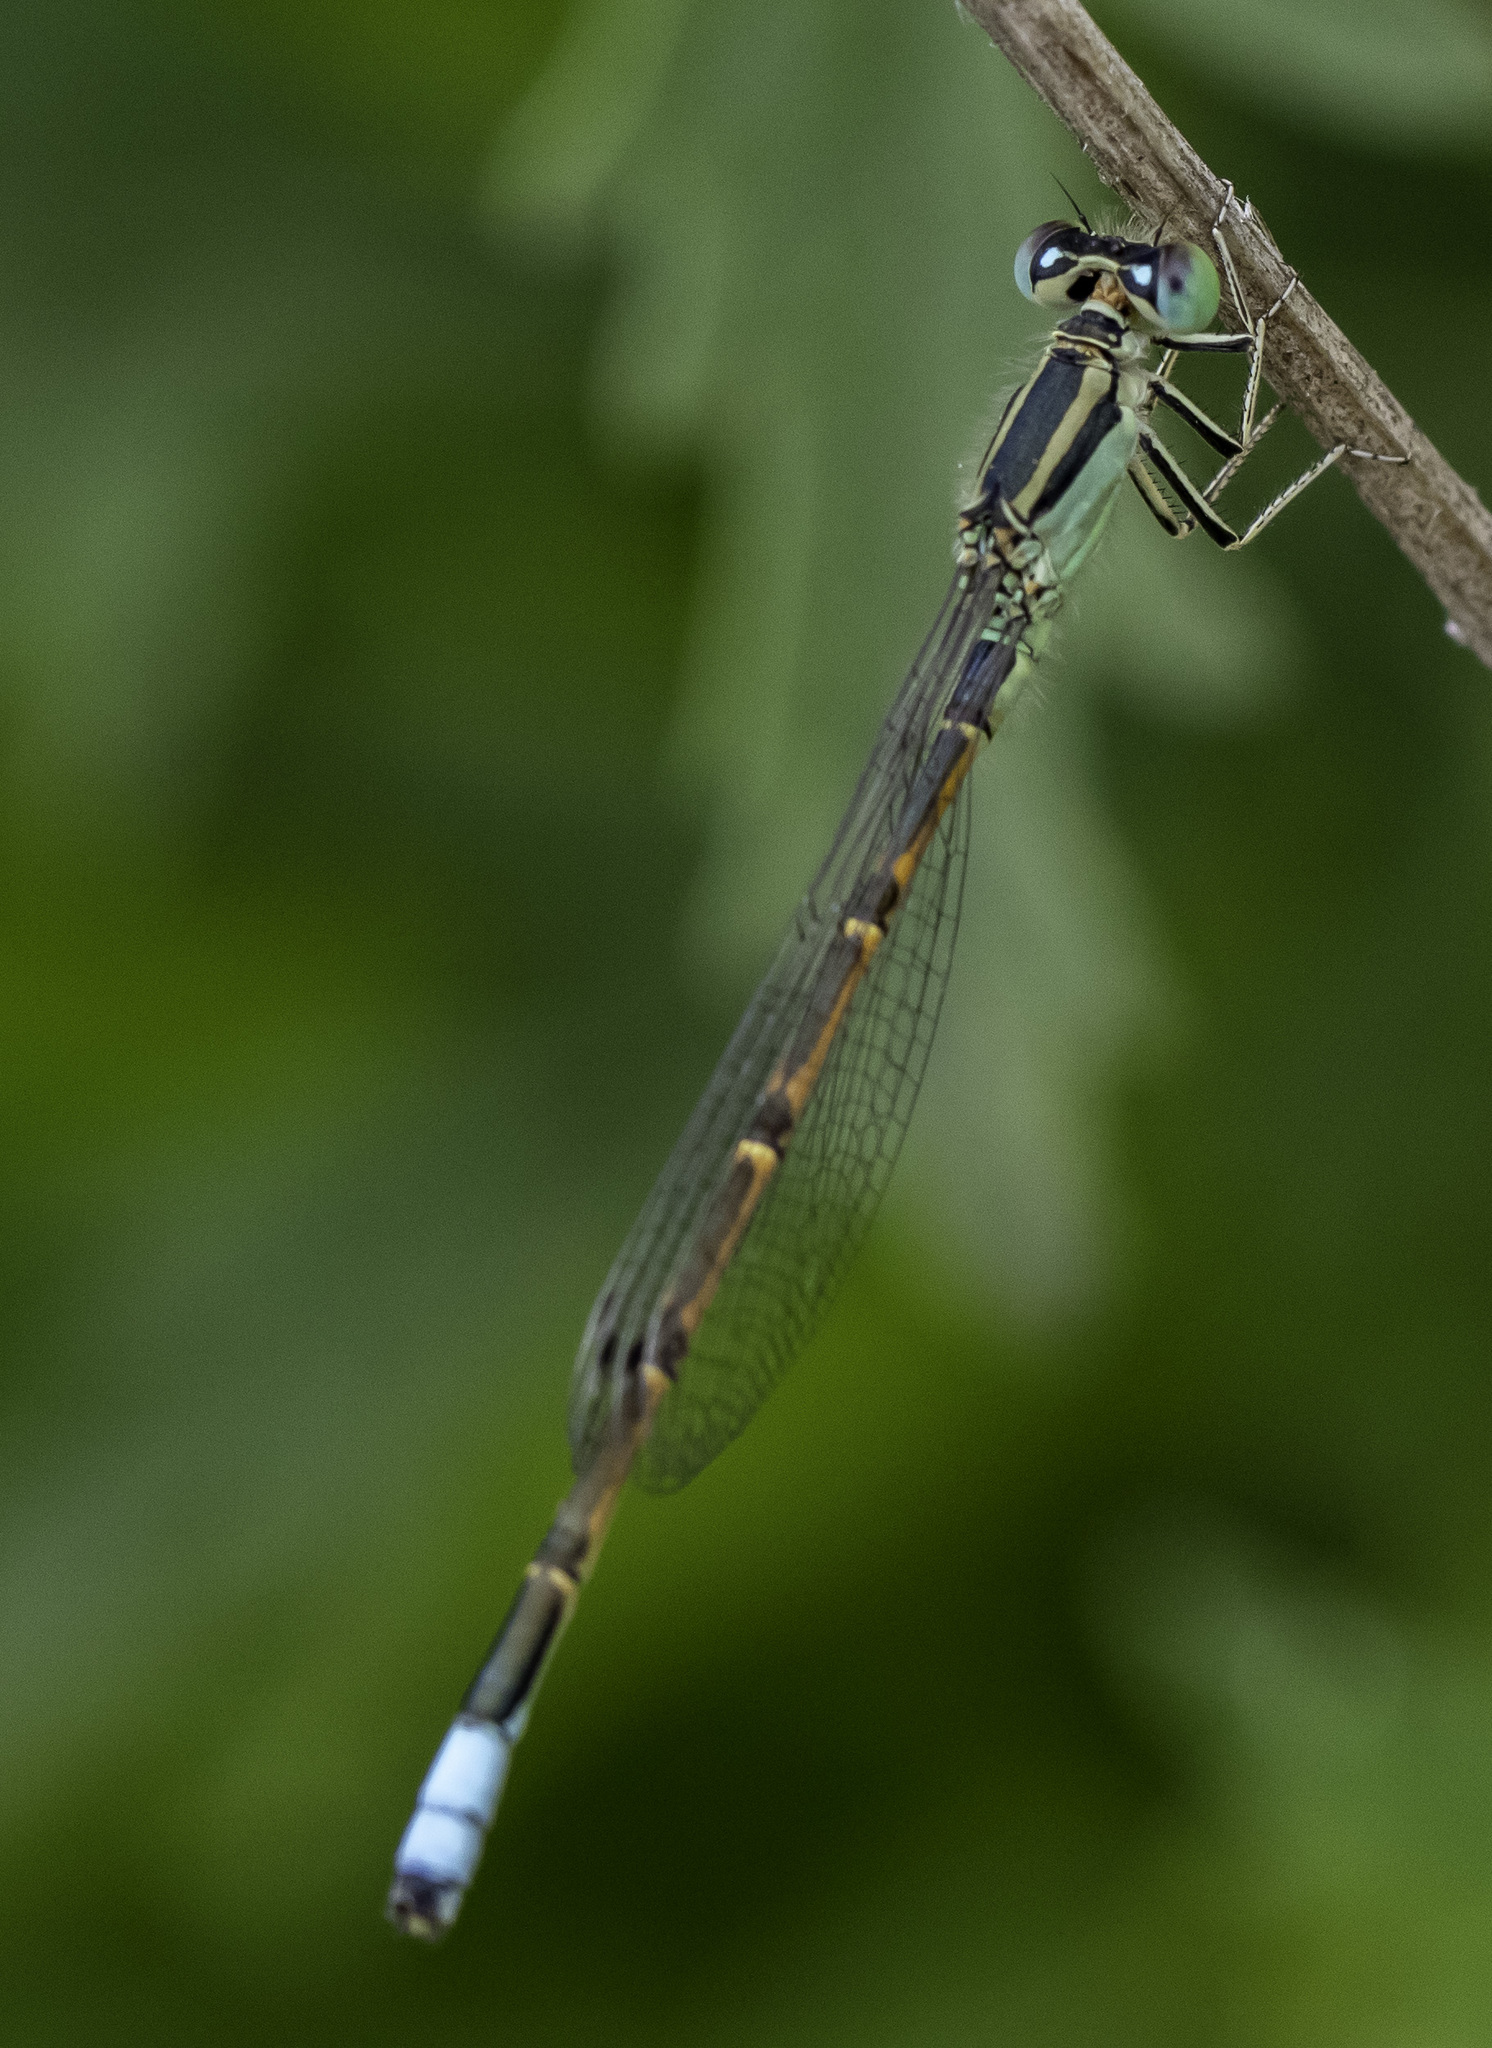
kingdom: Animalia
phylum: Arthropoda
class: Insecta
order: Odonata
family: Coenagrionidae
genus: Ischnura
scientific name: Ischnura barberi
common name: Desert forktail
